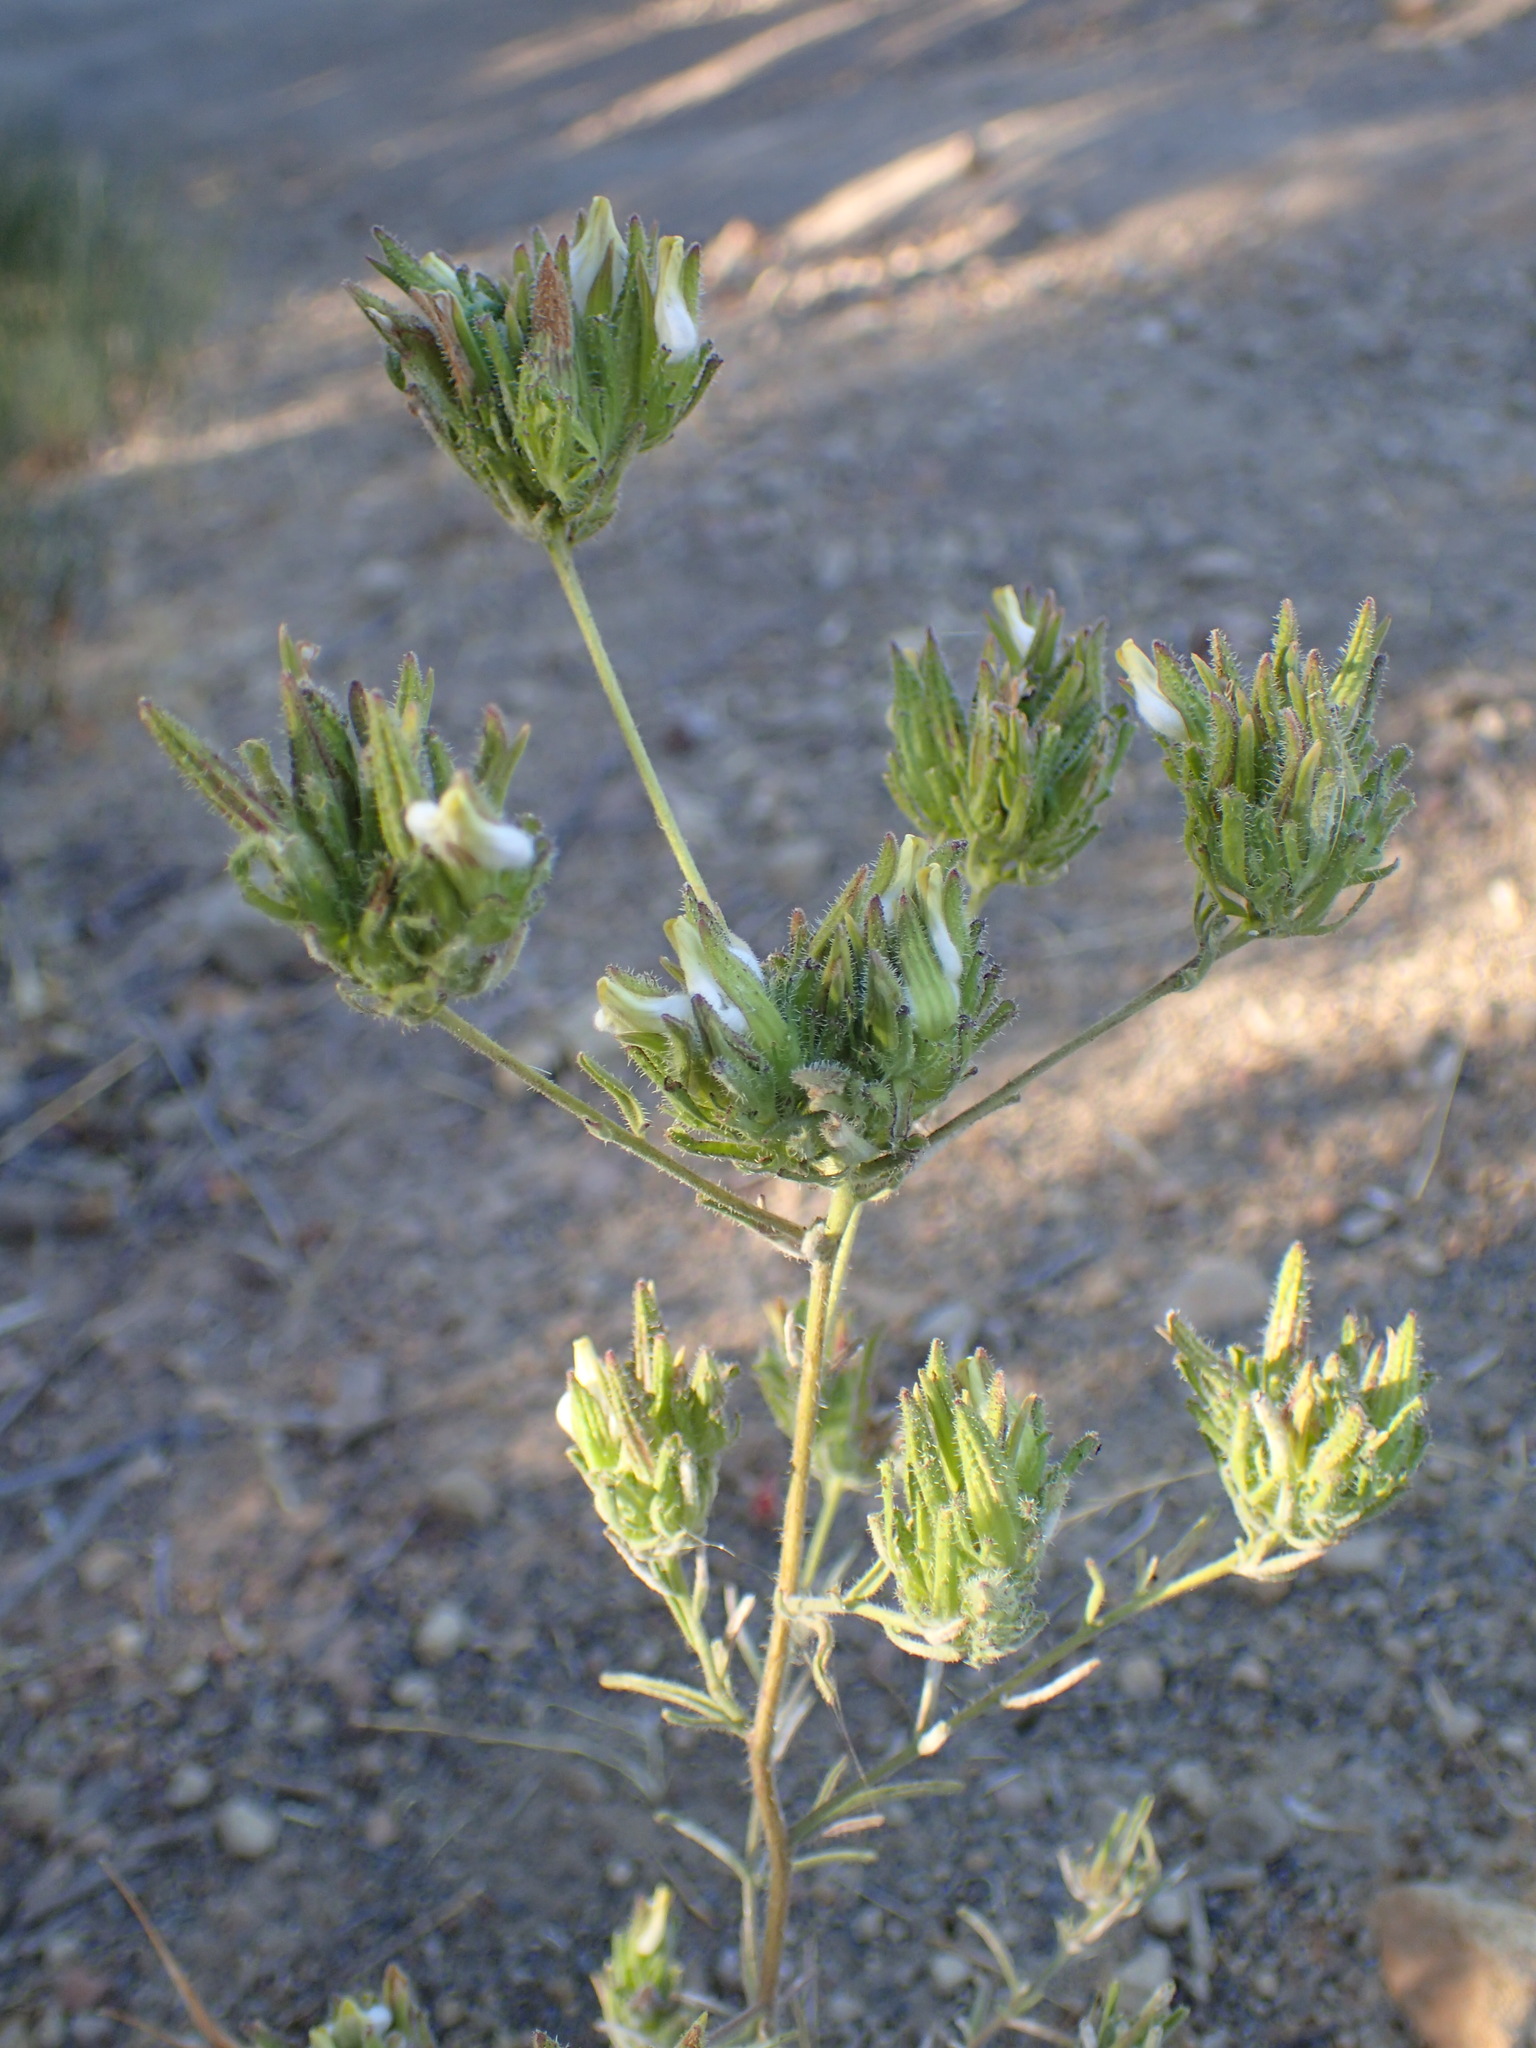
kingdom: Plantae
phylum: Tracheophyta
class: Magnoliopsida
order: Lamiales
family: Orobanchaceae
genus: Cordylanthus
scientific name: Cordylanthus rigidus
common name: Stiff-branch bird's-beak
